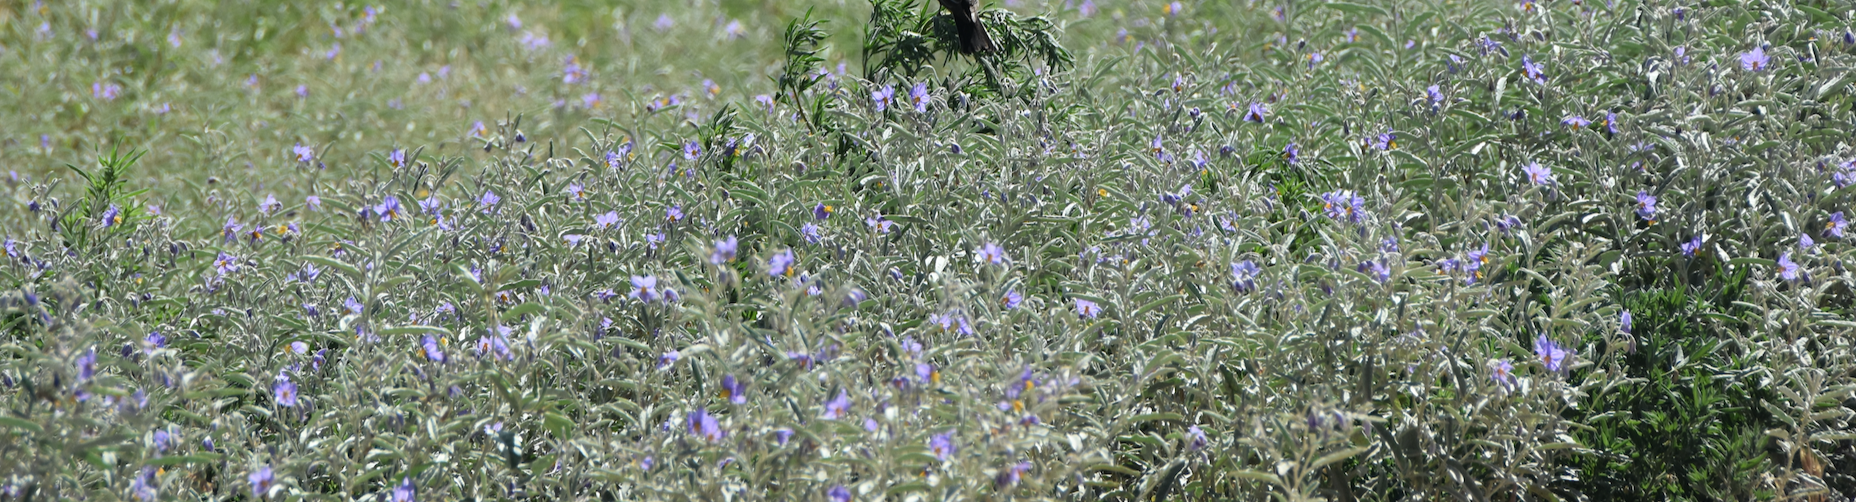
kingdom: Plantae
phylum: Tracheophyta
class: Magnoliopsida
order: Solanales
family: Solanaceae
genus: Solanum
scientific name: Solanum elaeagnifolium
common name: Silverleaf nightshade
